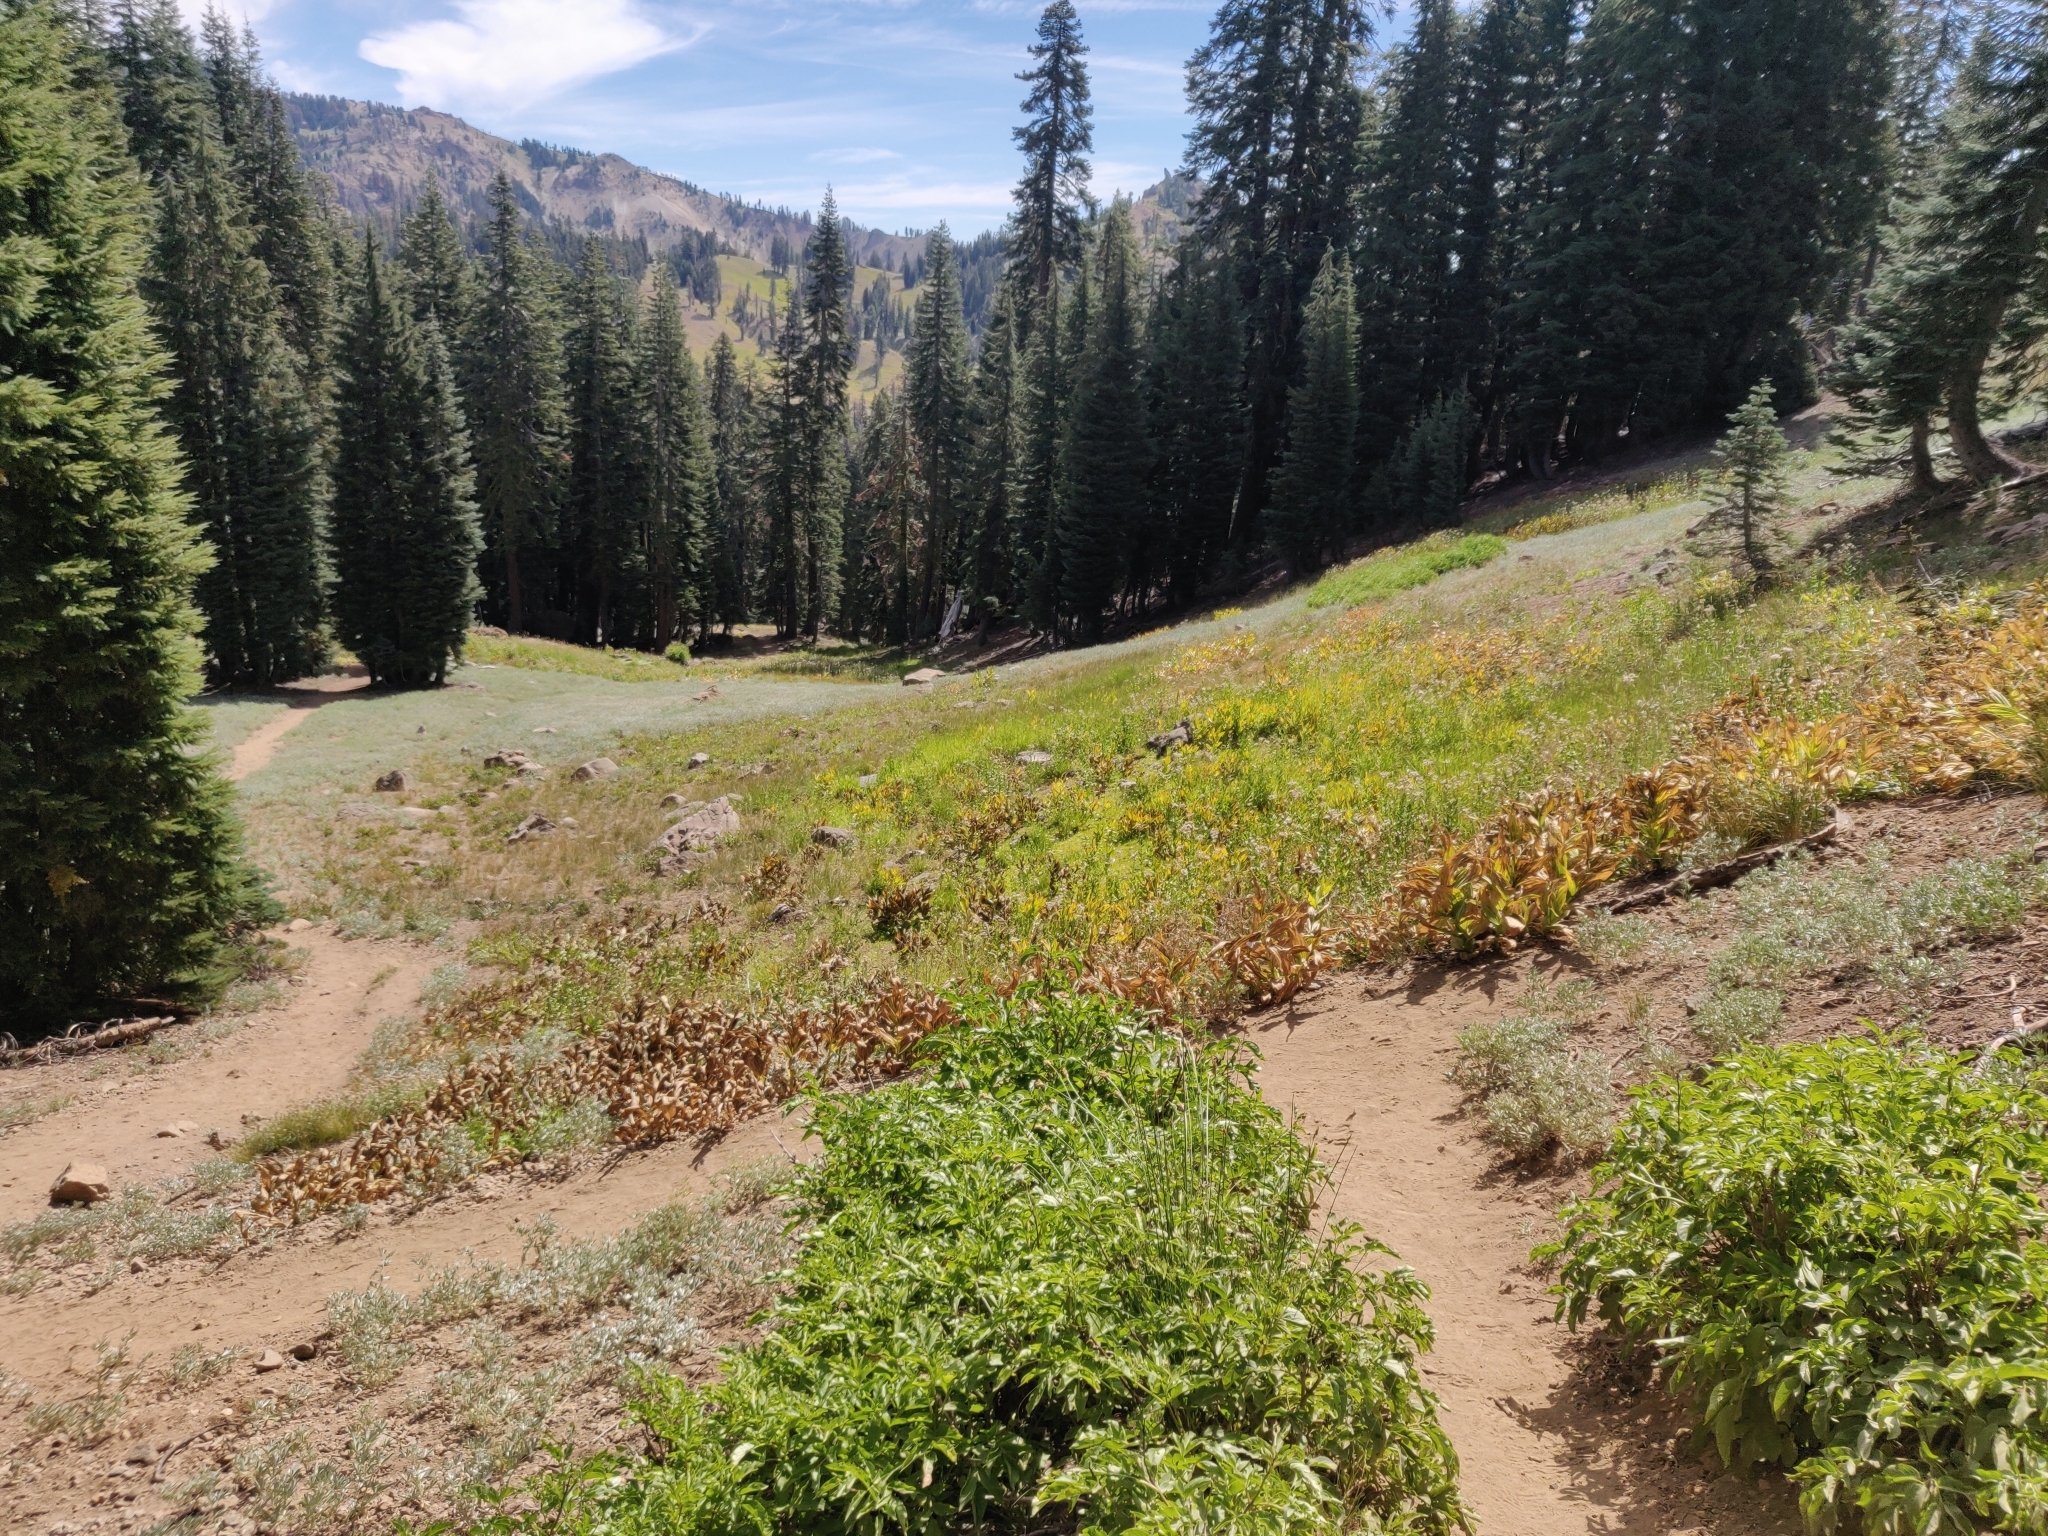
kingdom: Plantae
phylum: Tracheophyta
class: Magnoliopsida
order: Dipsacales
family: Viburnaceae
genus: Sambucus
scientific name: Sambucus racemosa
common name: Red-berried elder
